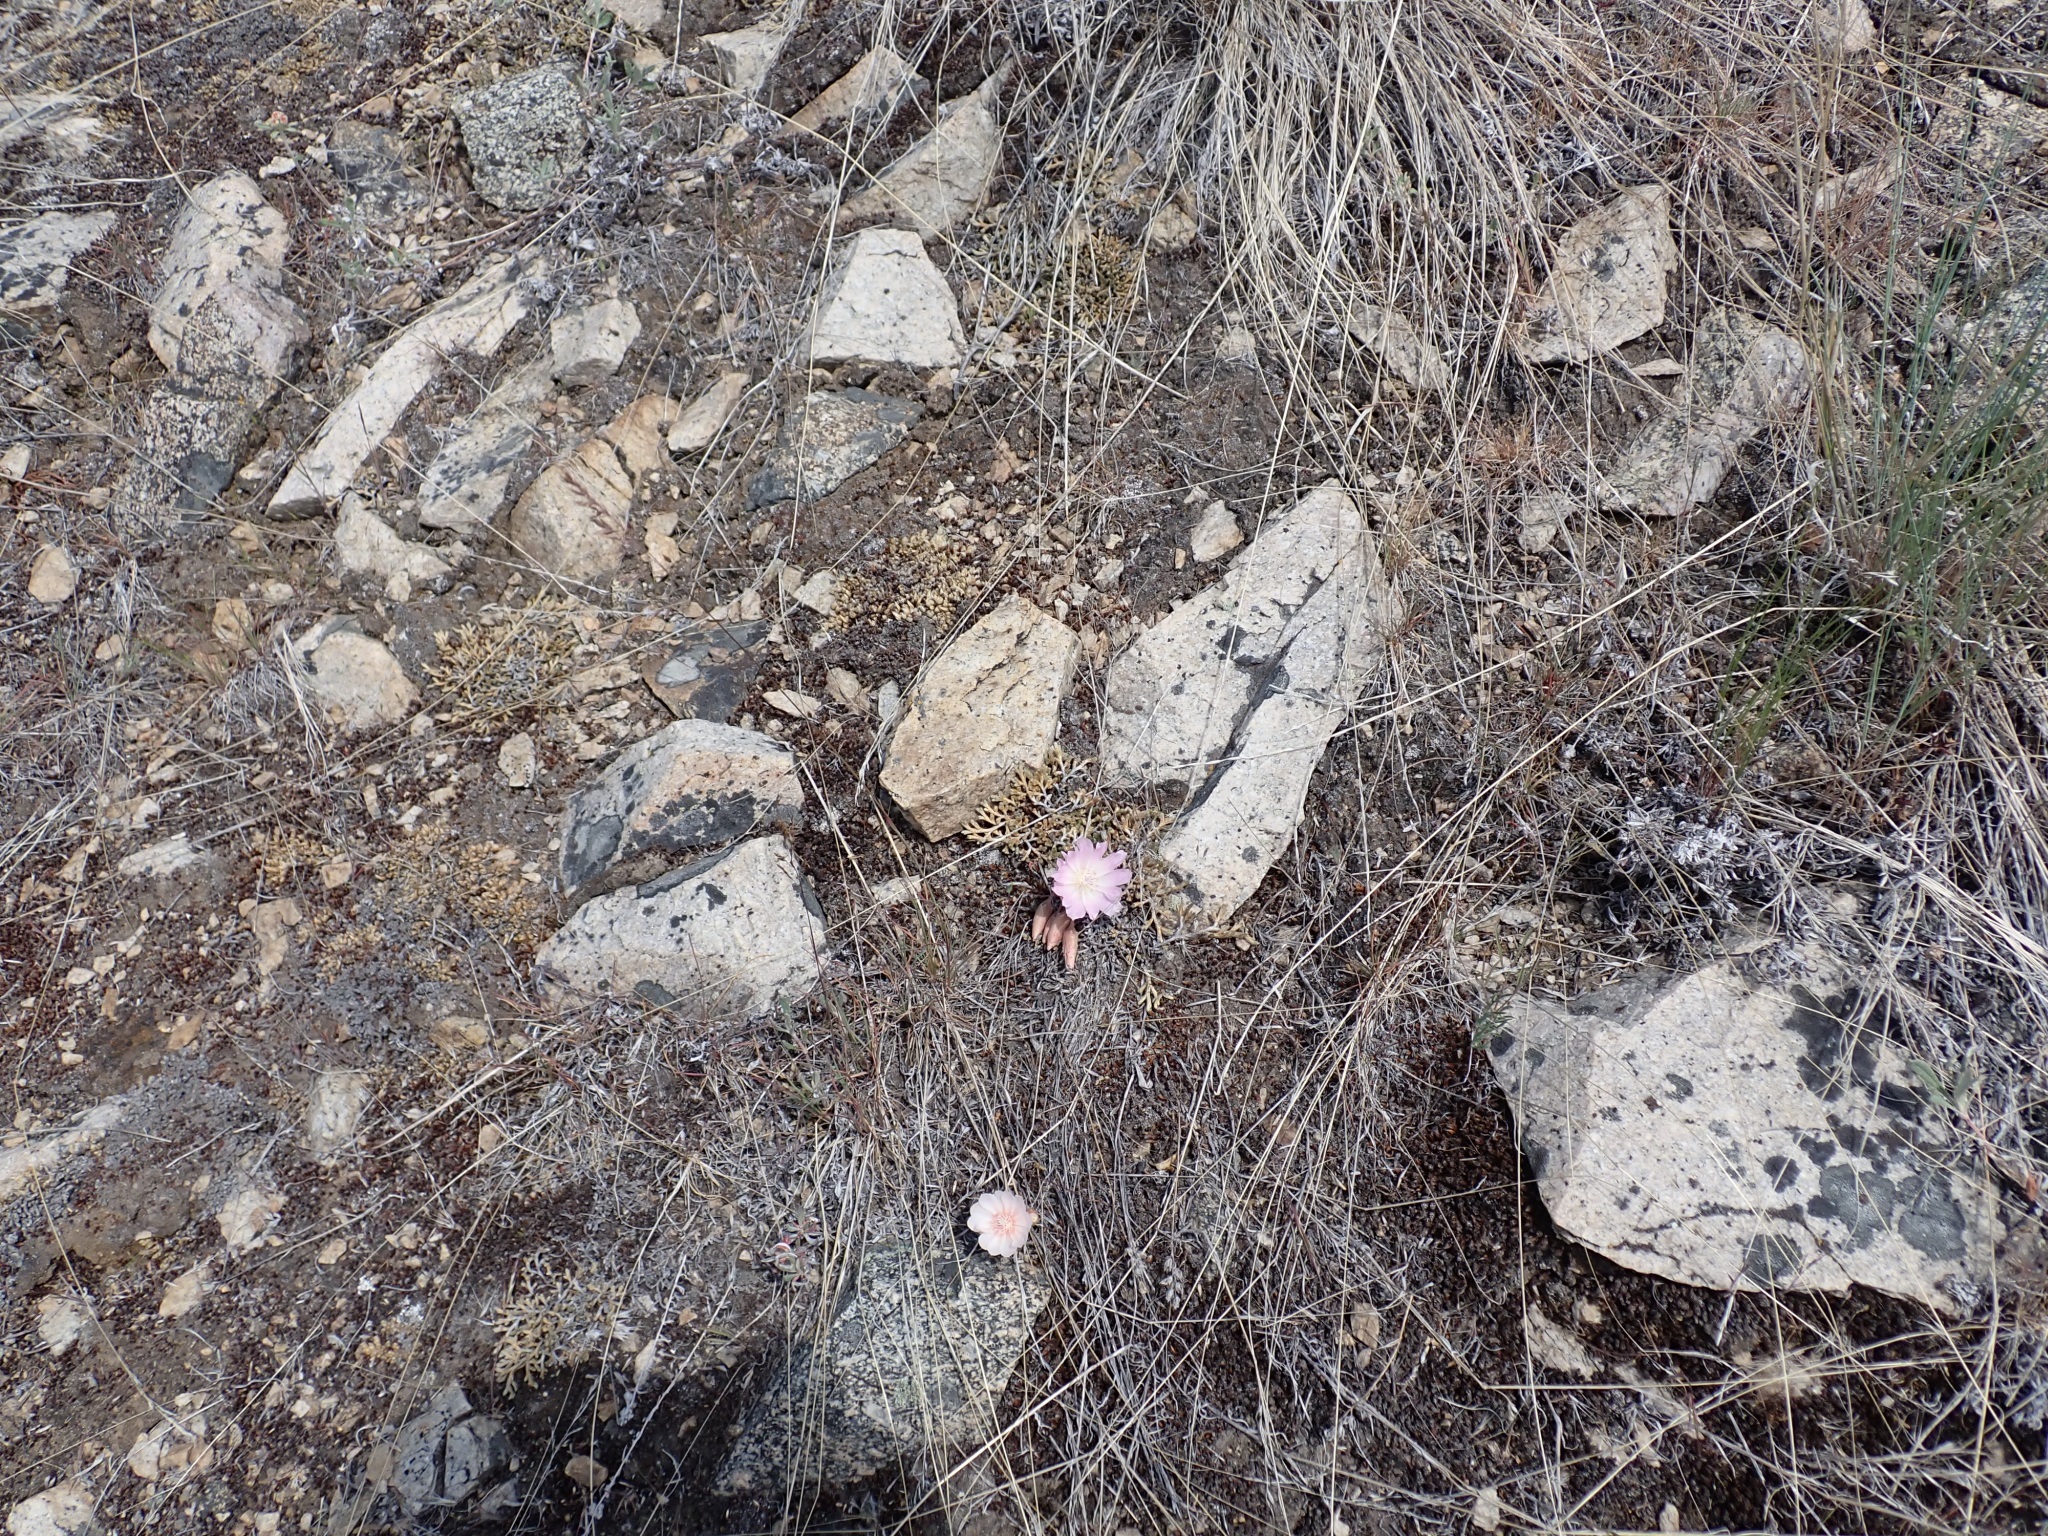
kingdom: Plantae
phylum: Tracheophyta
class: Magnoliopsida
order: Caryophyllales
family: Montiaceae
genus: Lewisia
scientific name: Lewisia rediviva
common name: Bitter-root
